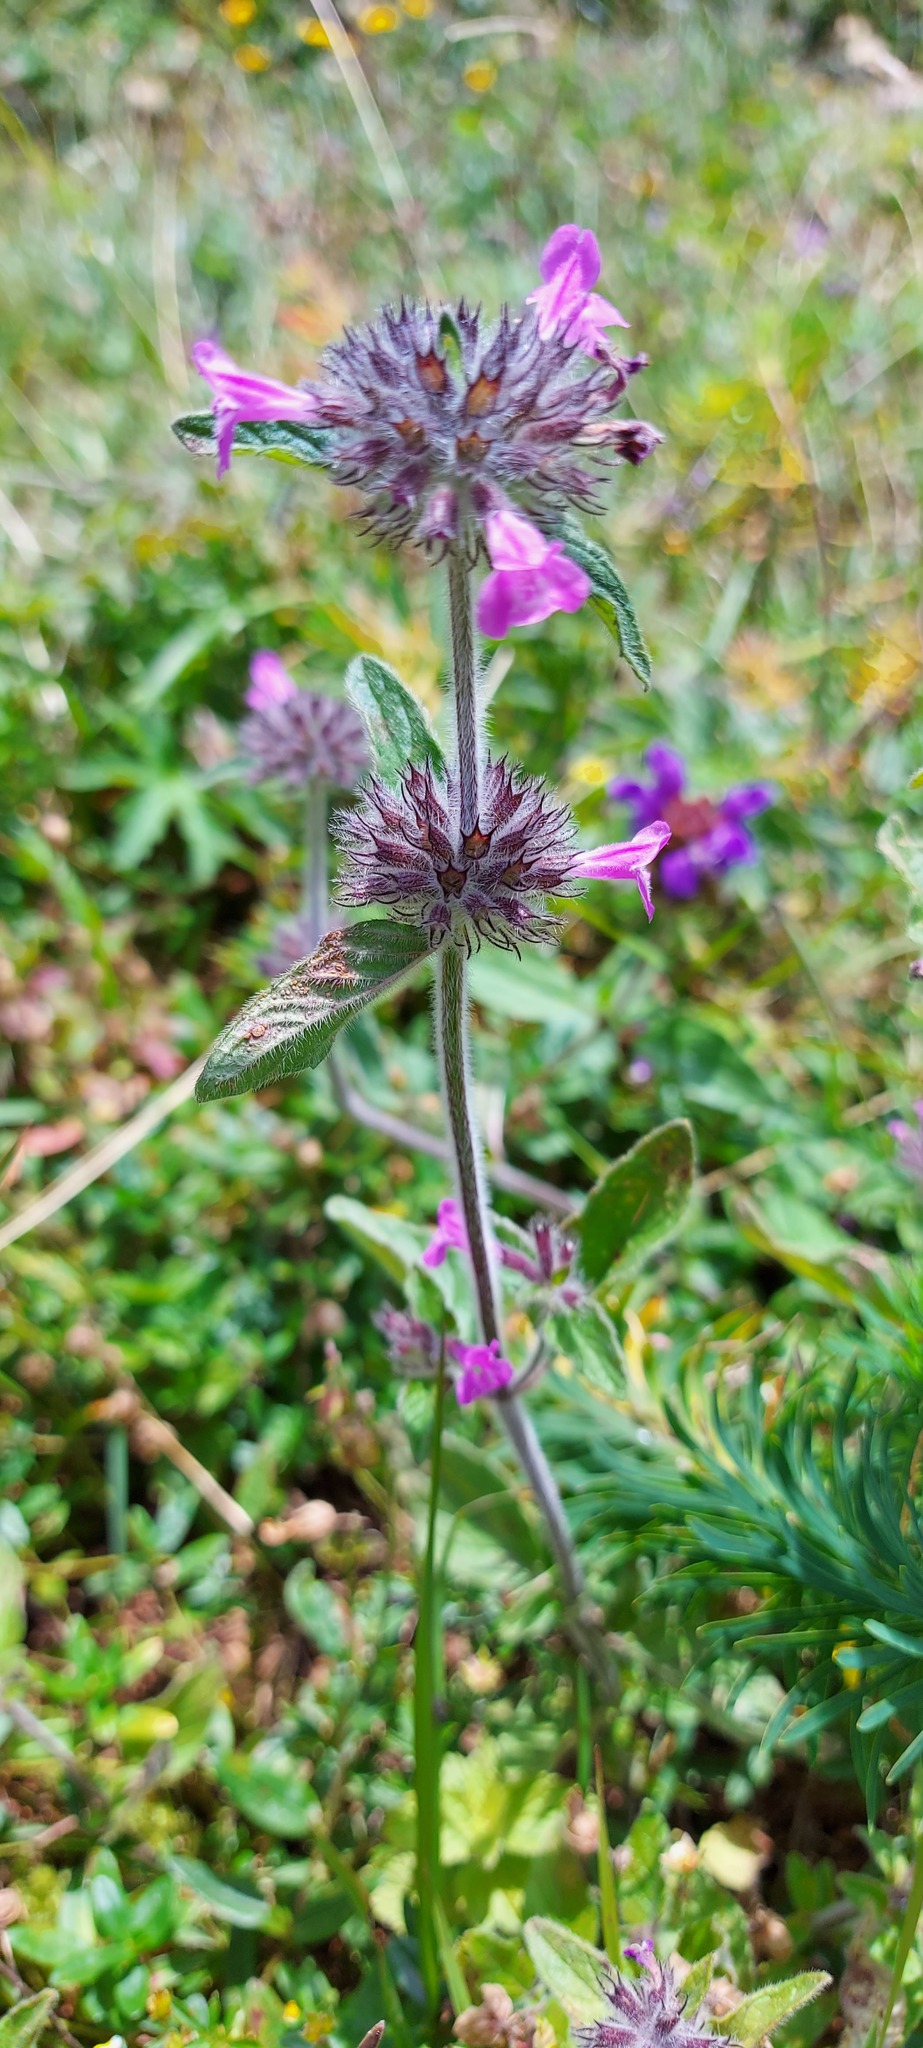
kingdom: Plantae
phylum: Tracheophyta
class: Magnoliopsida
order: Lamiales
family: Lamiaceae
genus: Clinopodium
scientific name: Clinopodium vulgare
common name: Wild basil
